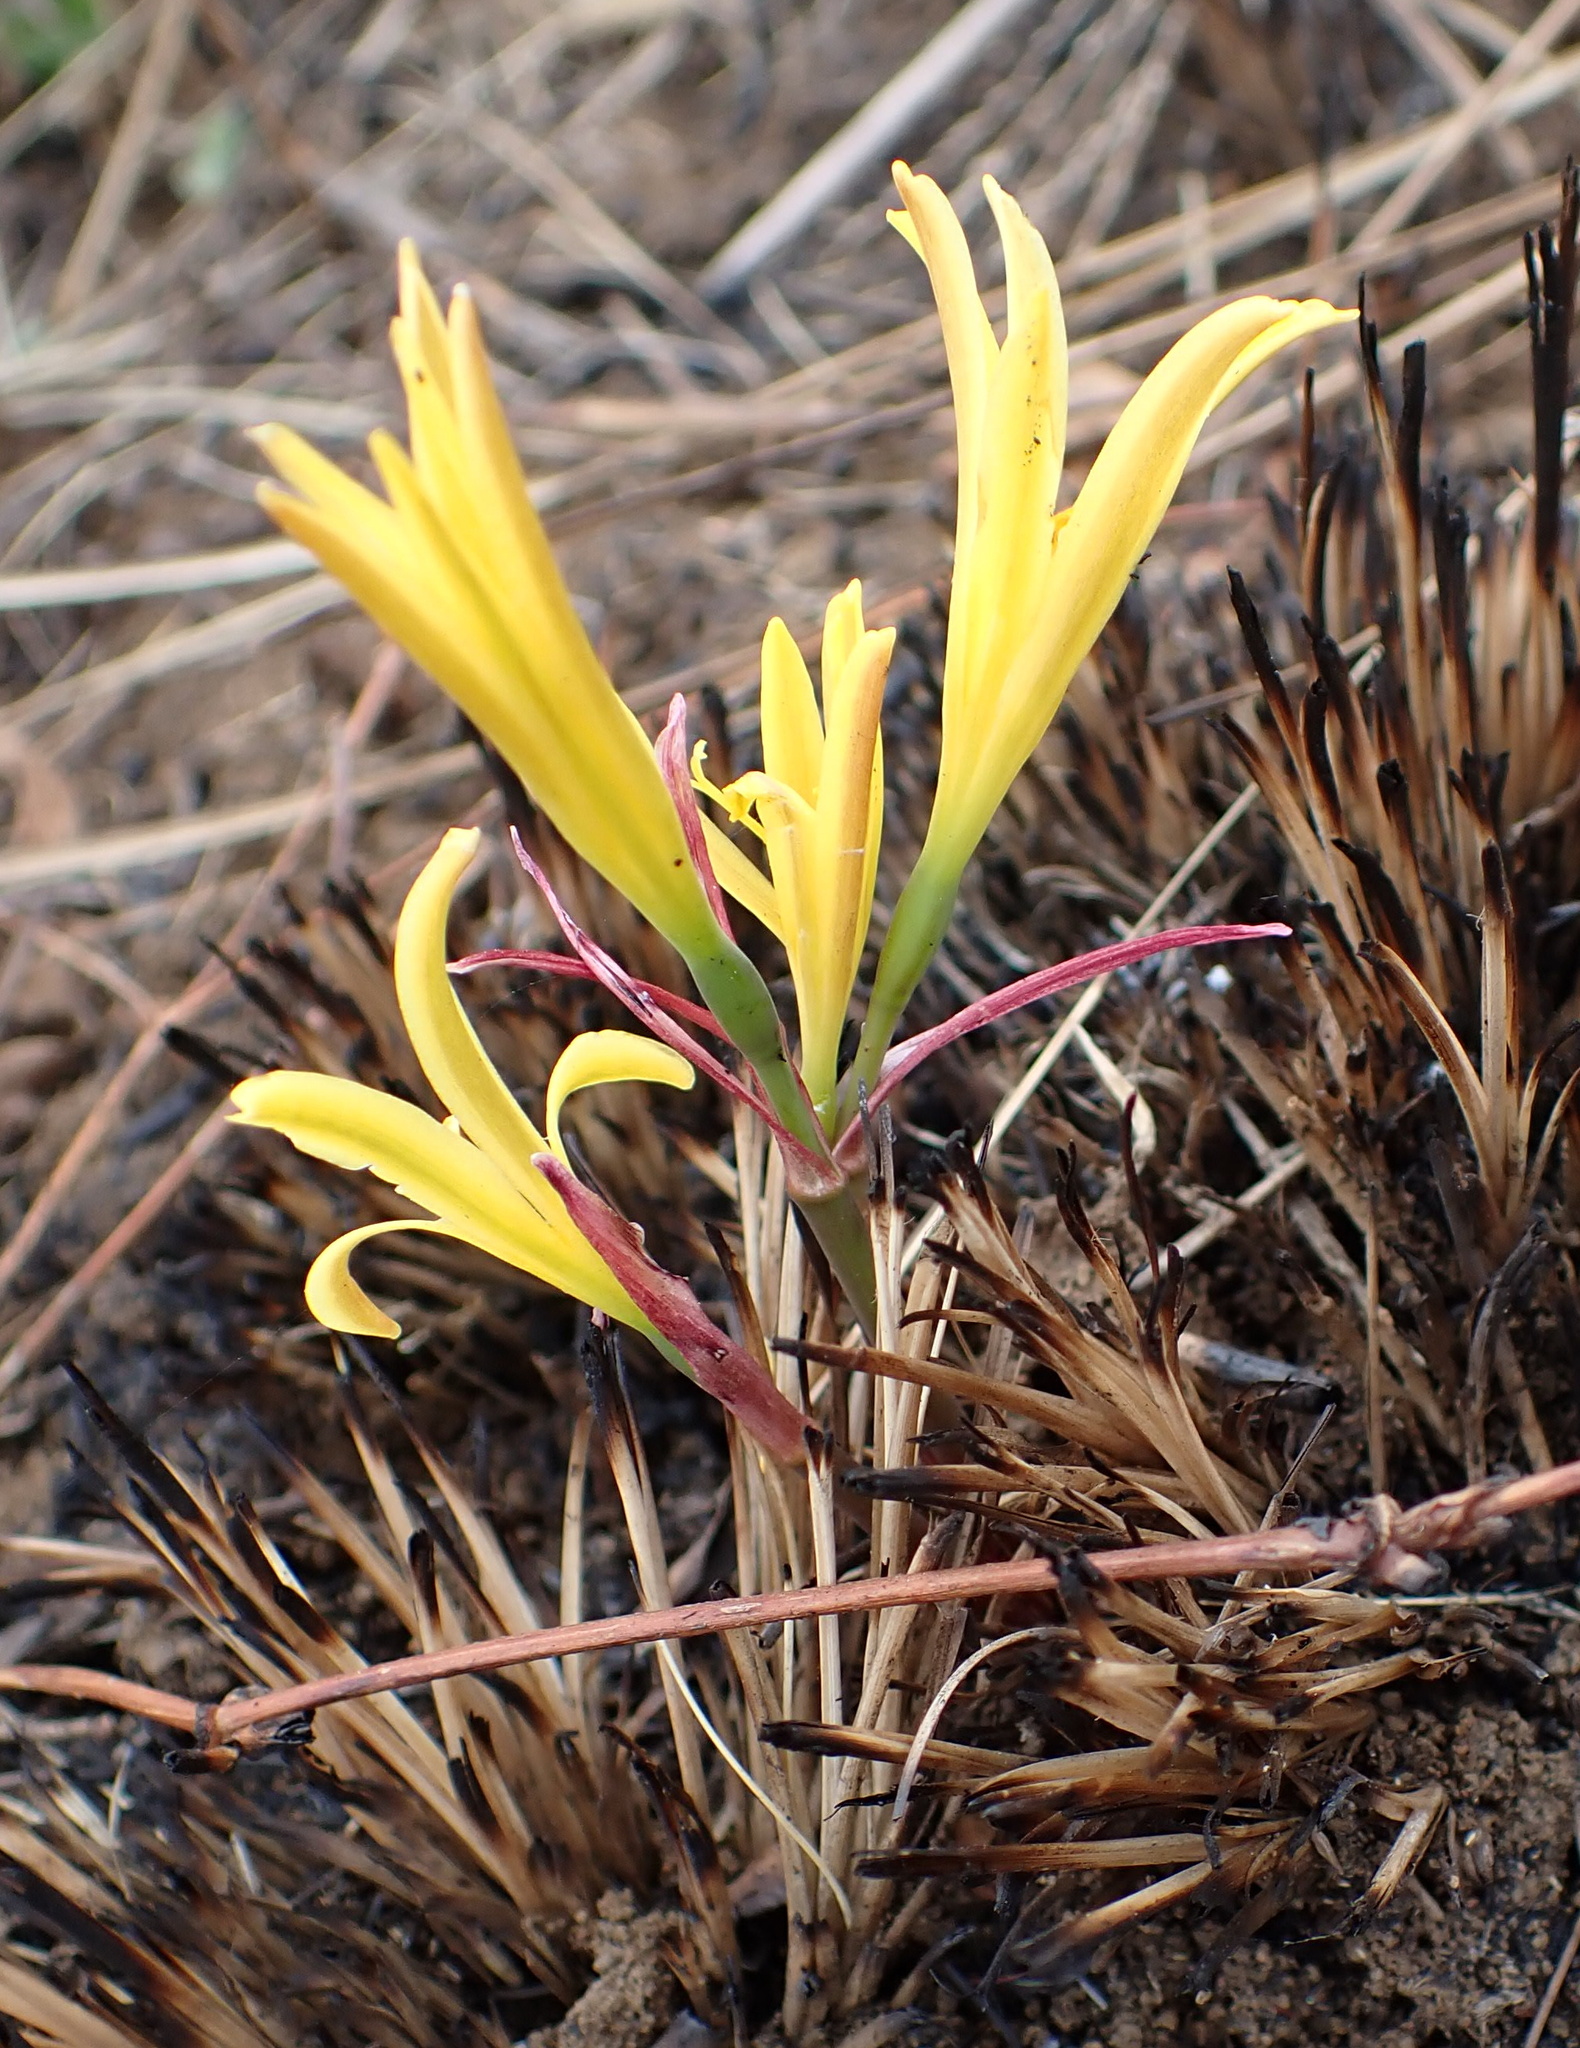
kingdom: Plantae
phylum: Tracheophyta
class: Liliopsida
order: Asparagales
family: Amaryllidaceae
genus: Cyrtanthus
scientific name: Cyrtanthus breviflorus
